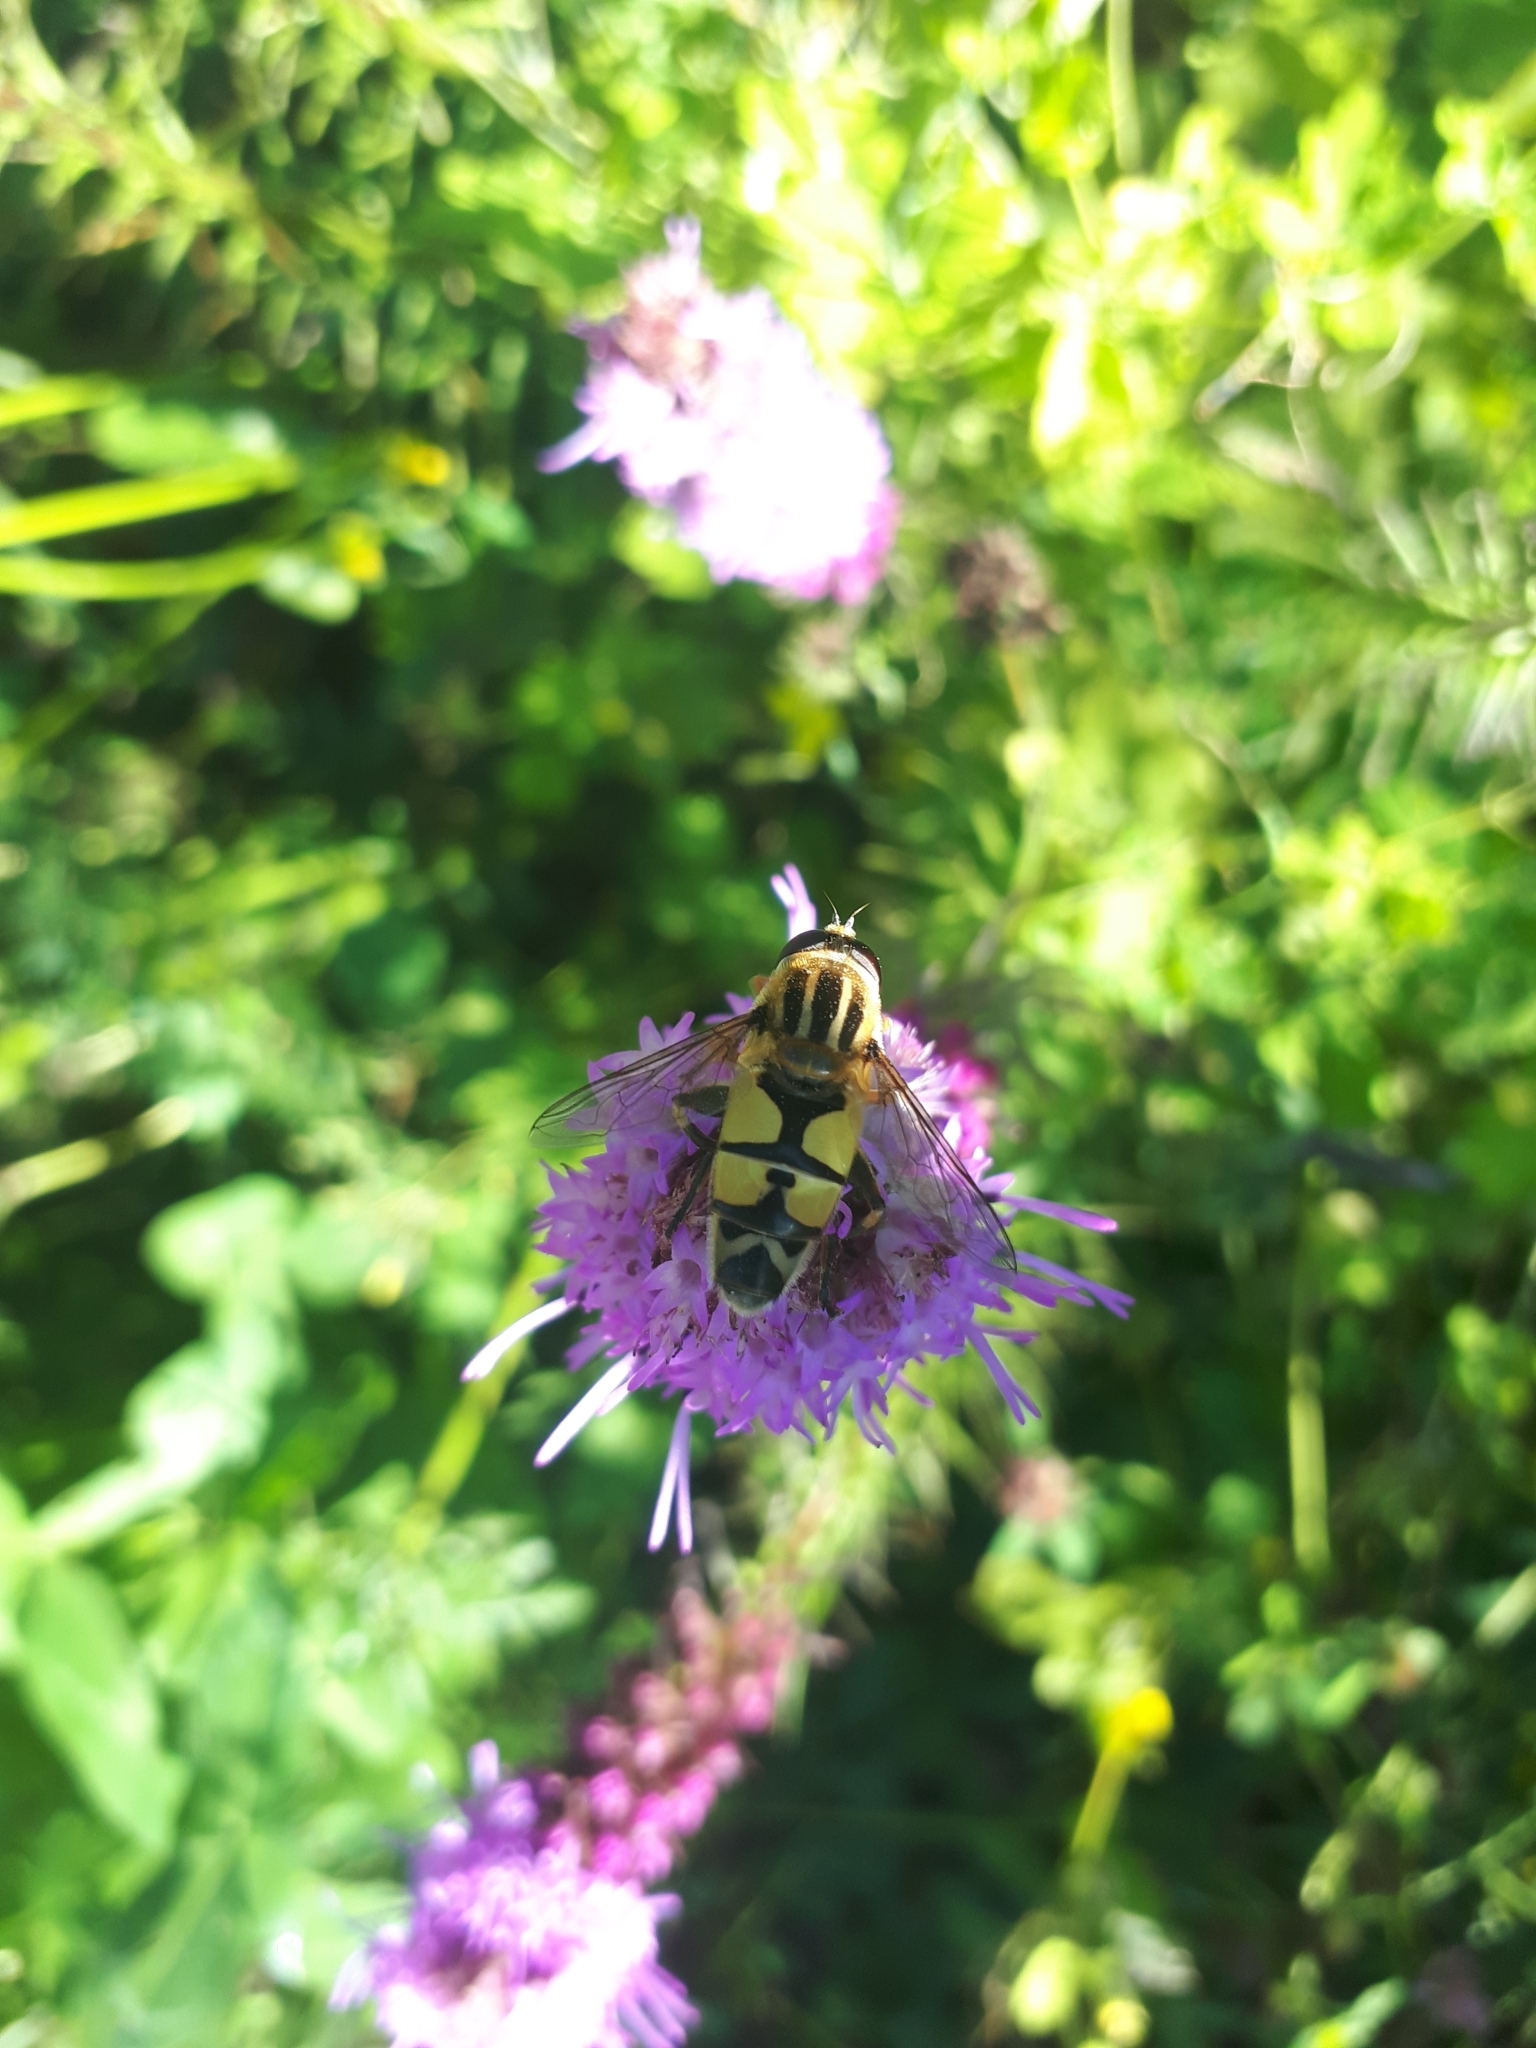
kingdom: Animalia
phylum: Arthropoda
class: Insecta
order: Diptera
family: Syrphidae
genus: Helophilus
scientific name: Helophilus trivittatus
